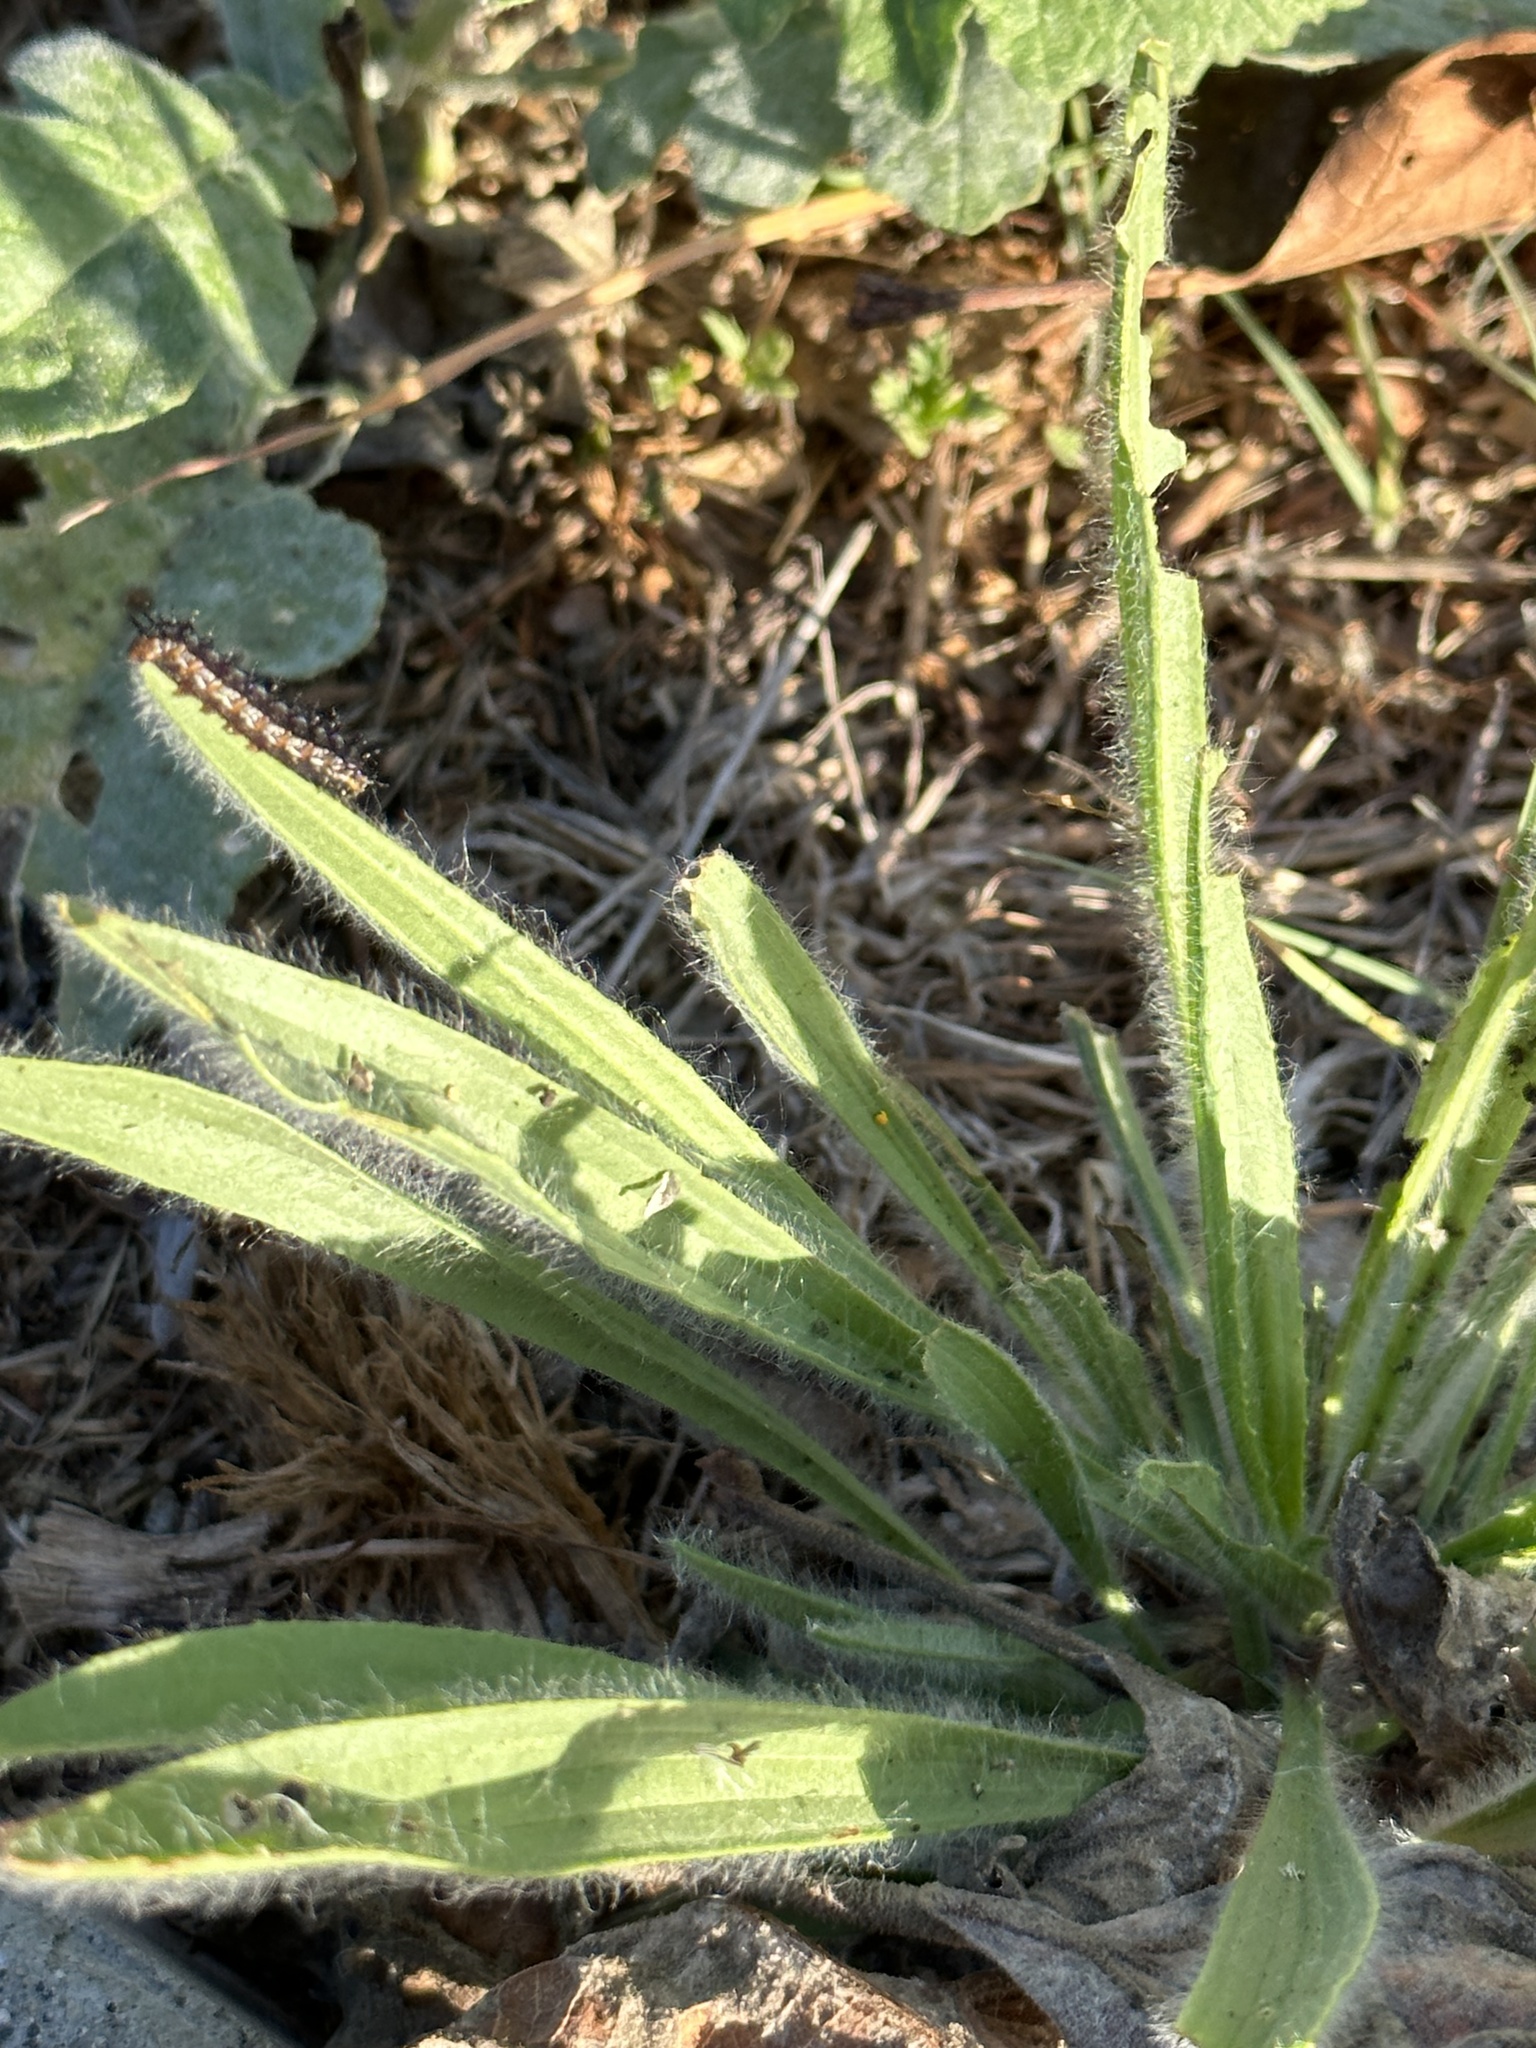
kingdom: Animalia
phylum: Arthropoda
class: Insecta
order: Lepidoptera
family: Nymphalidae
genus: Junonia
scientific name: Junonia grisea
